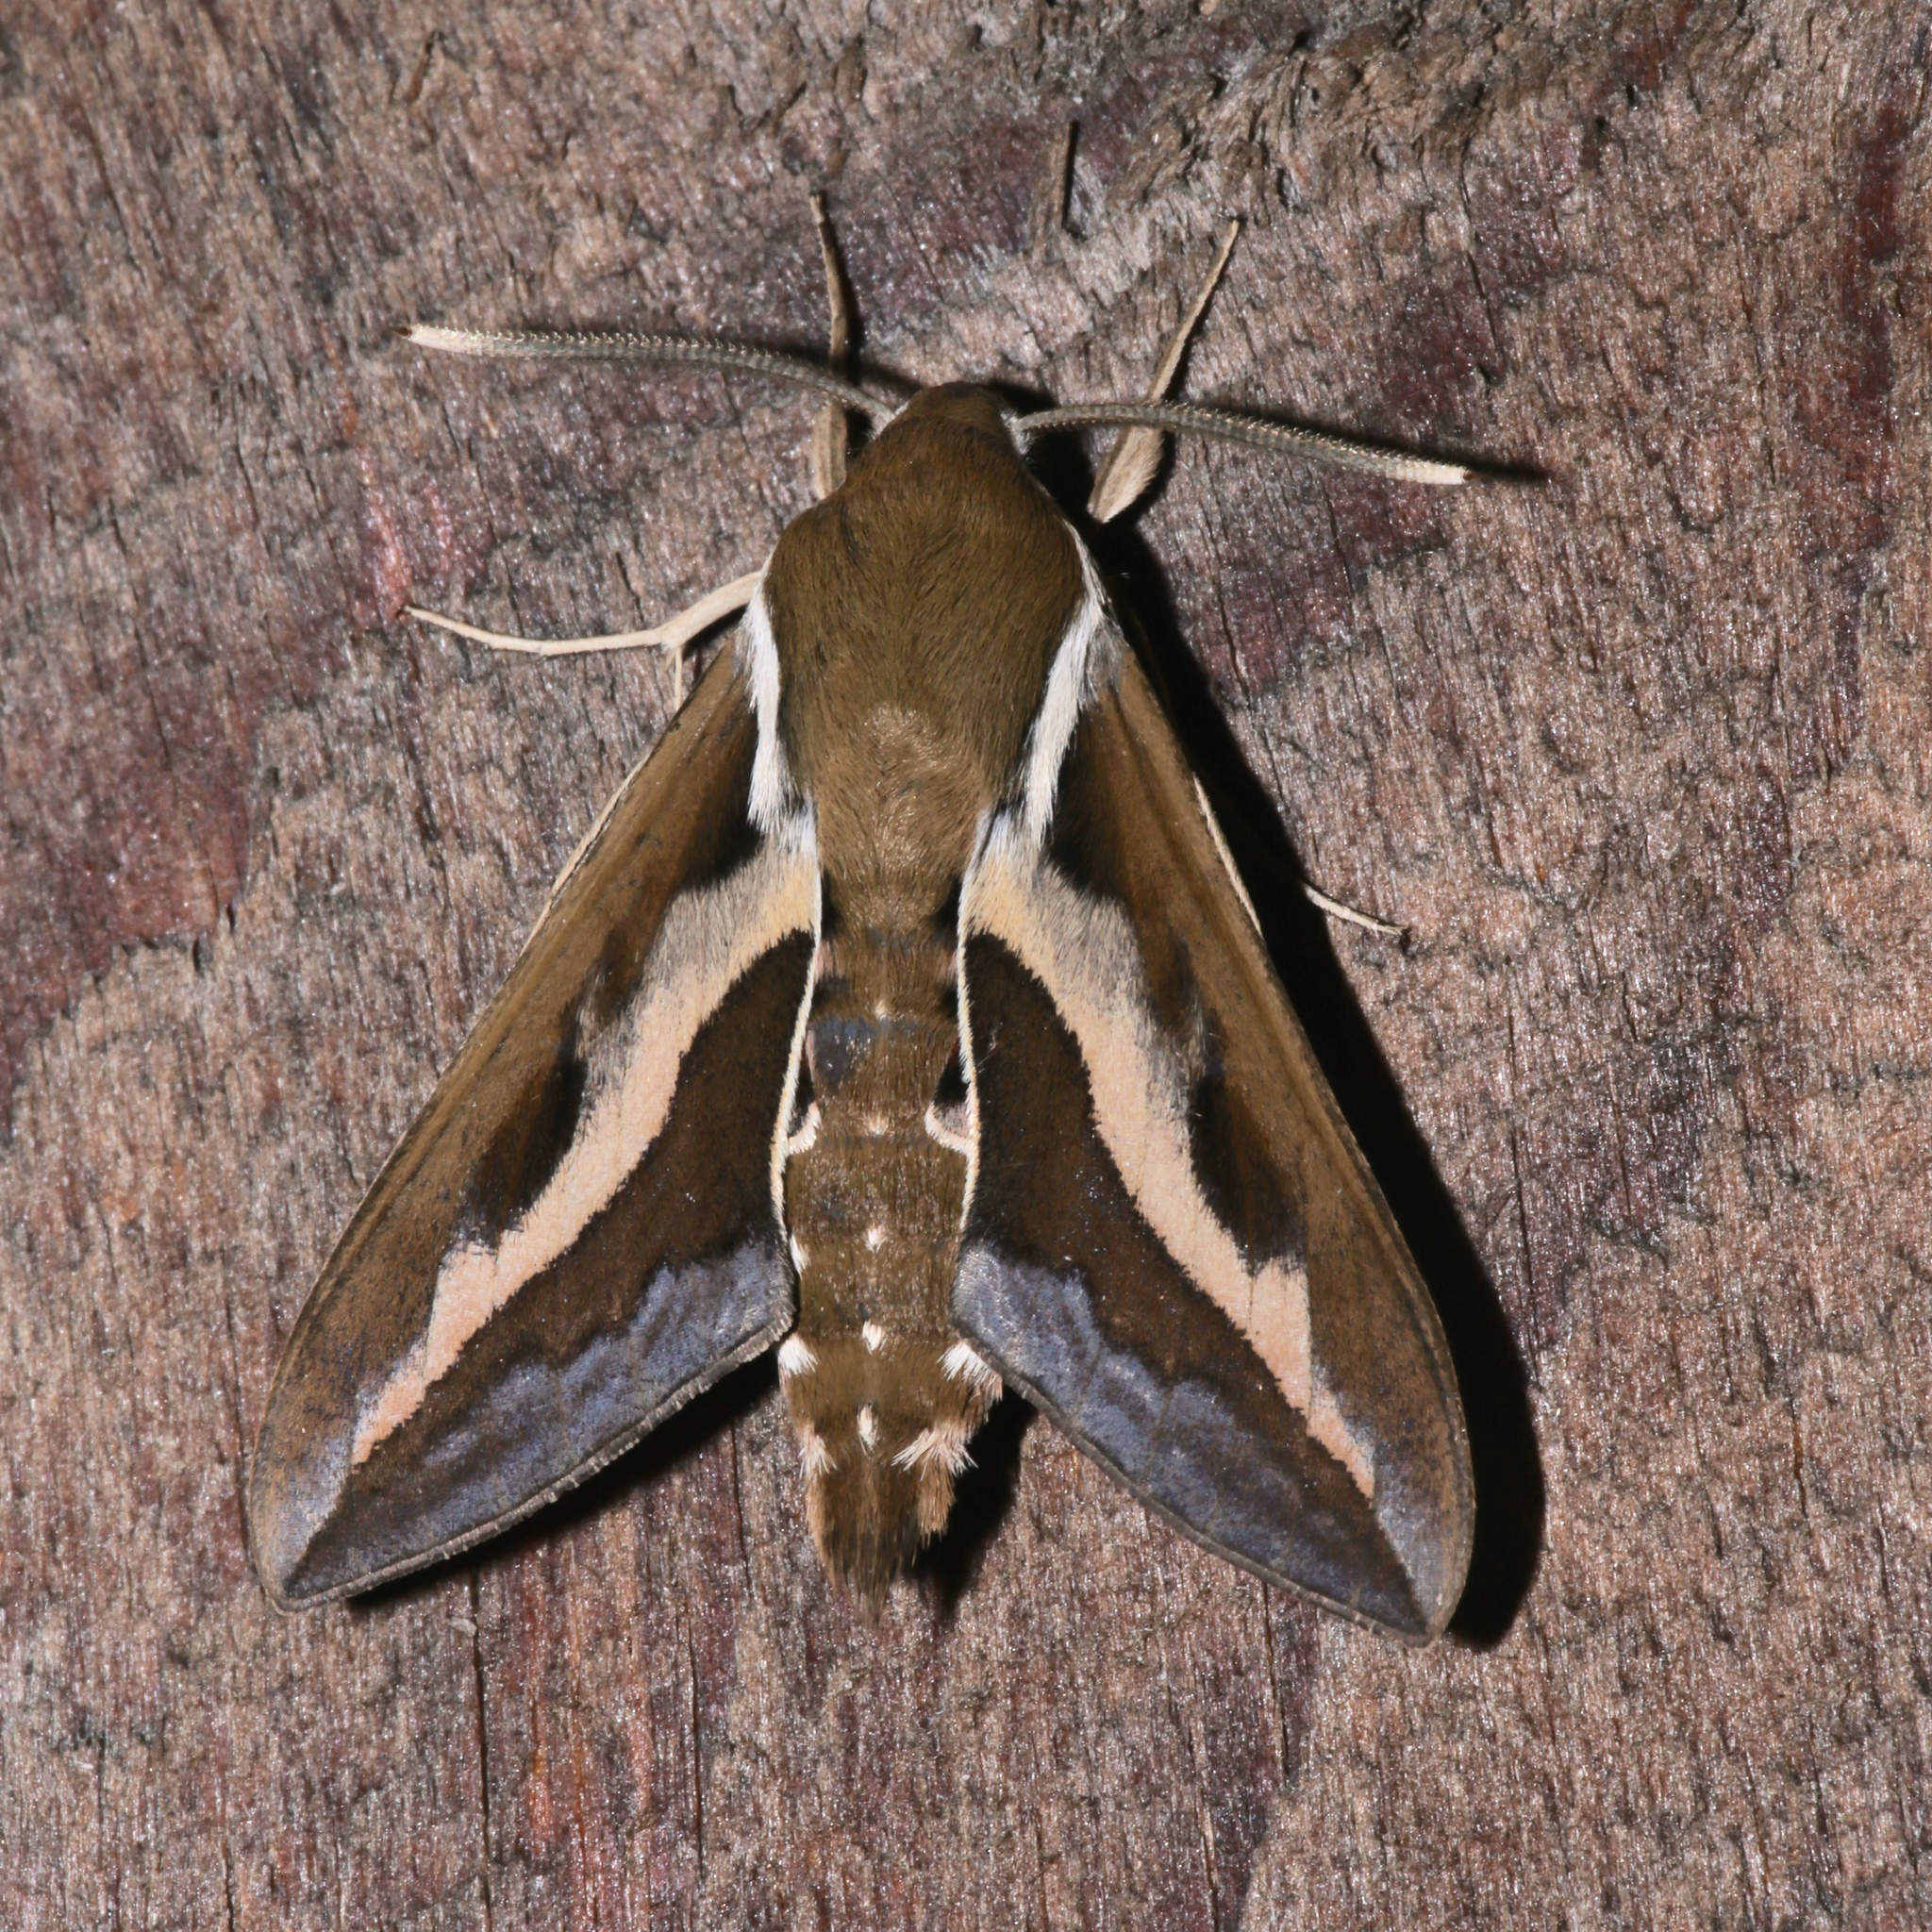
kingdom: Animalia
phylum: Arthropoda
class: Insecta
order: Lepidoptera
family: Sphingidae
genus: Hyles
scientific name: Hyles gallii
